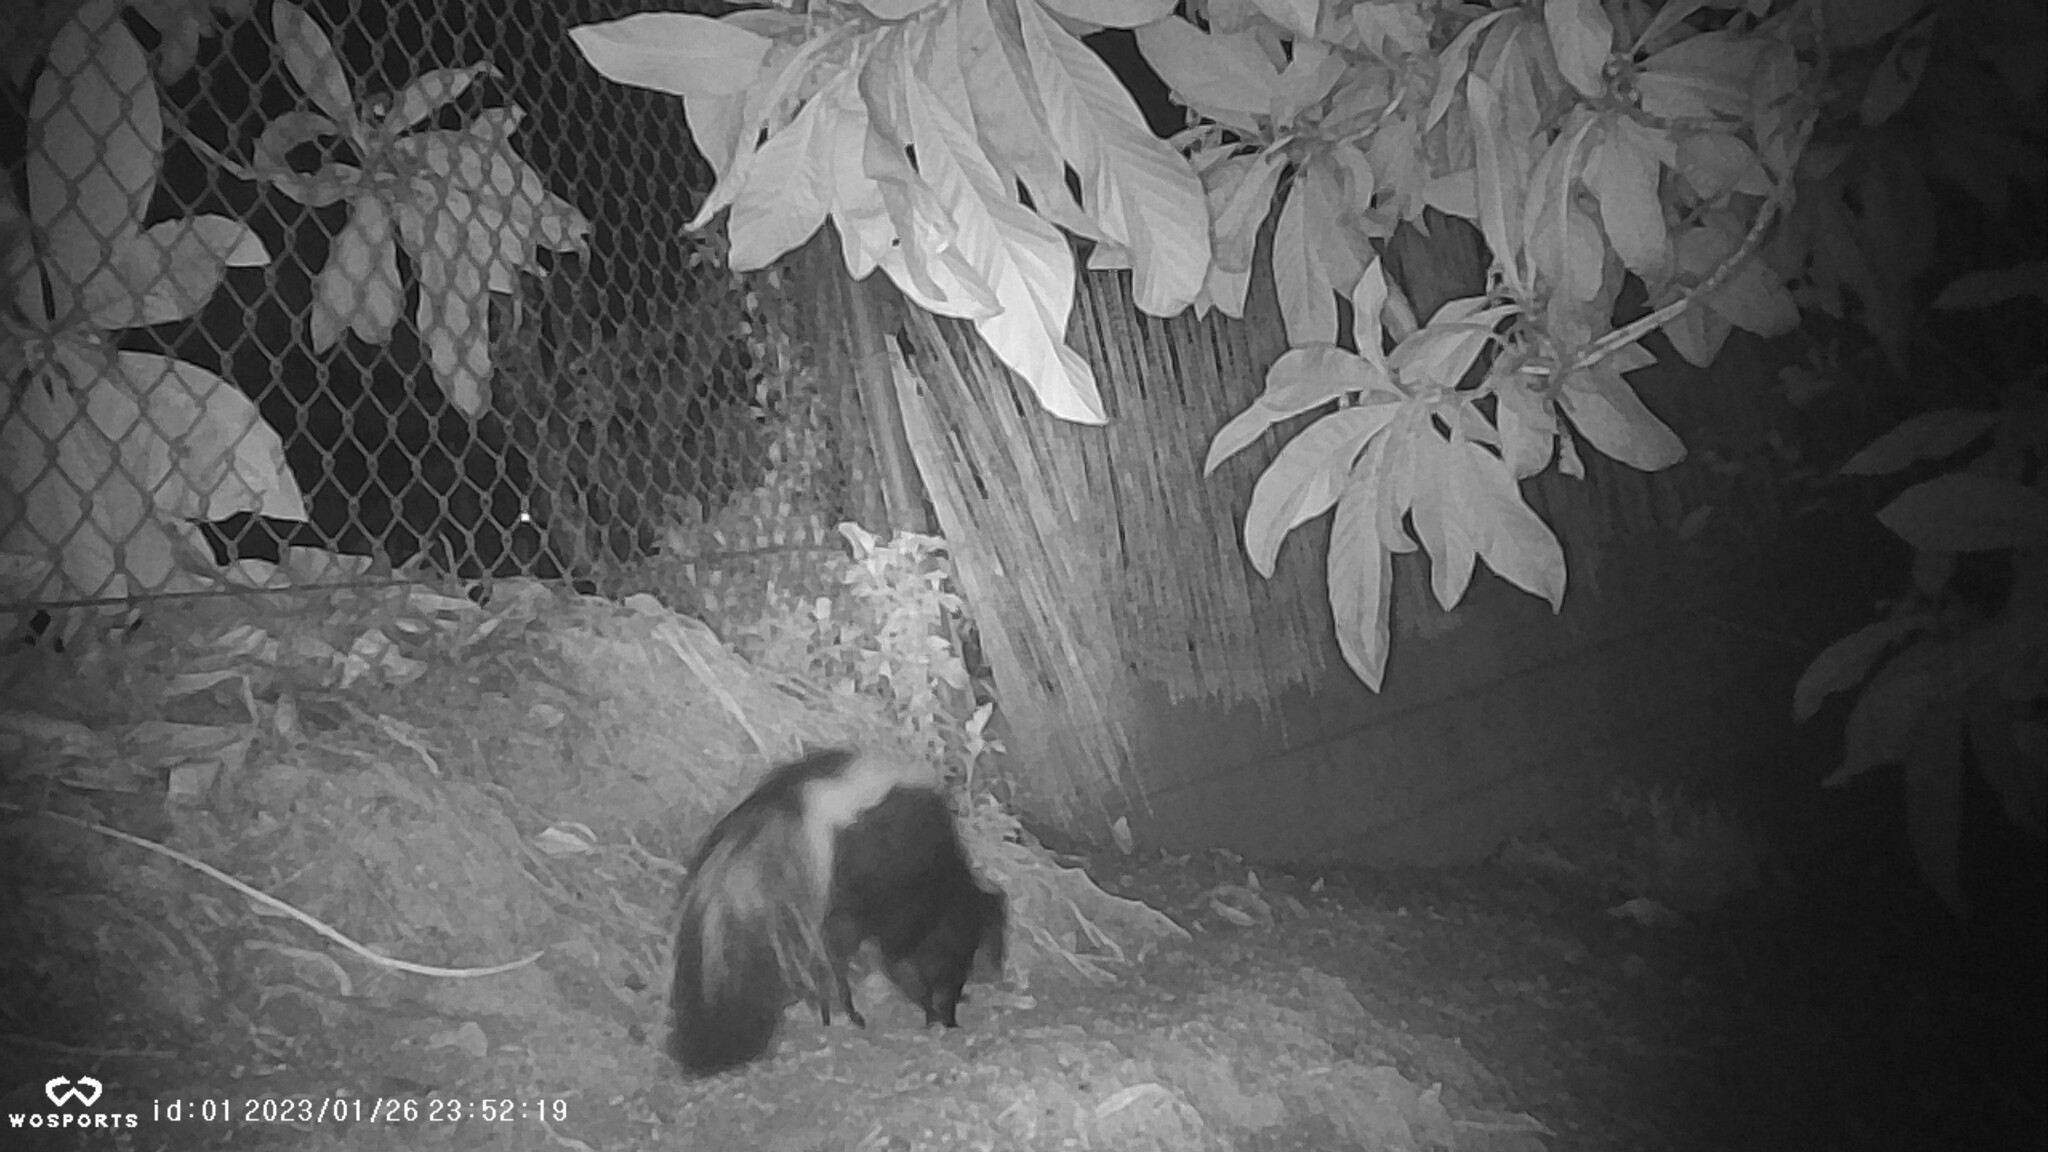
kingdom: Animalia
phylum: Chordata
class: Mammalia
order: Carnivora
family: Mephitidae
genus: Mephitis
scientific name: Mephitis mephitis
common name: Striped skunk
